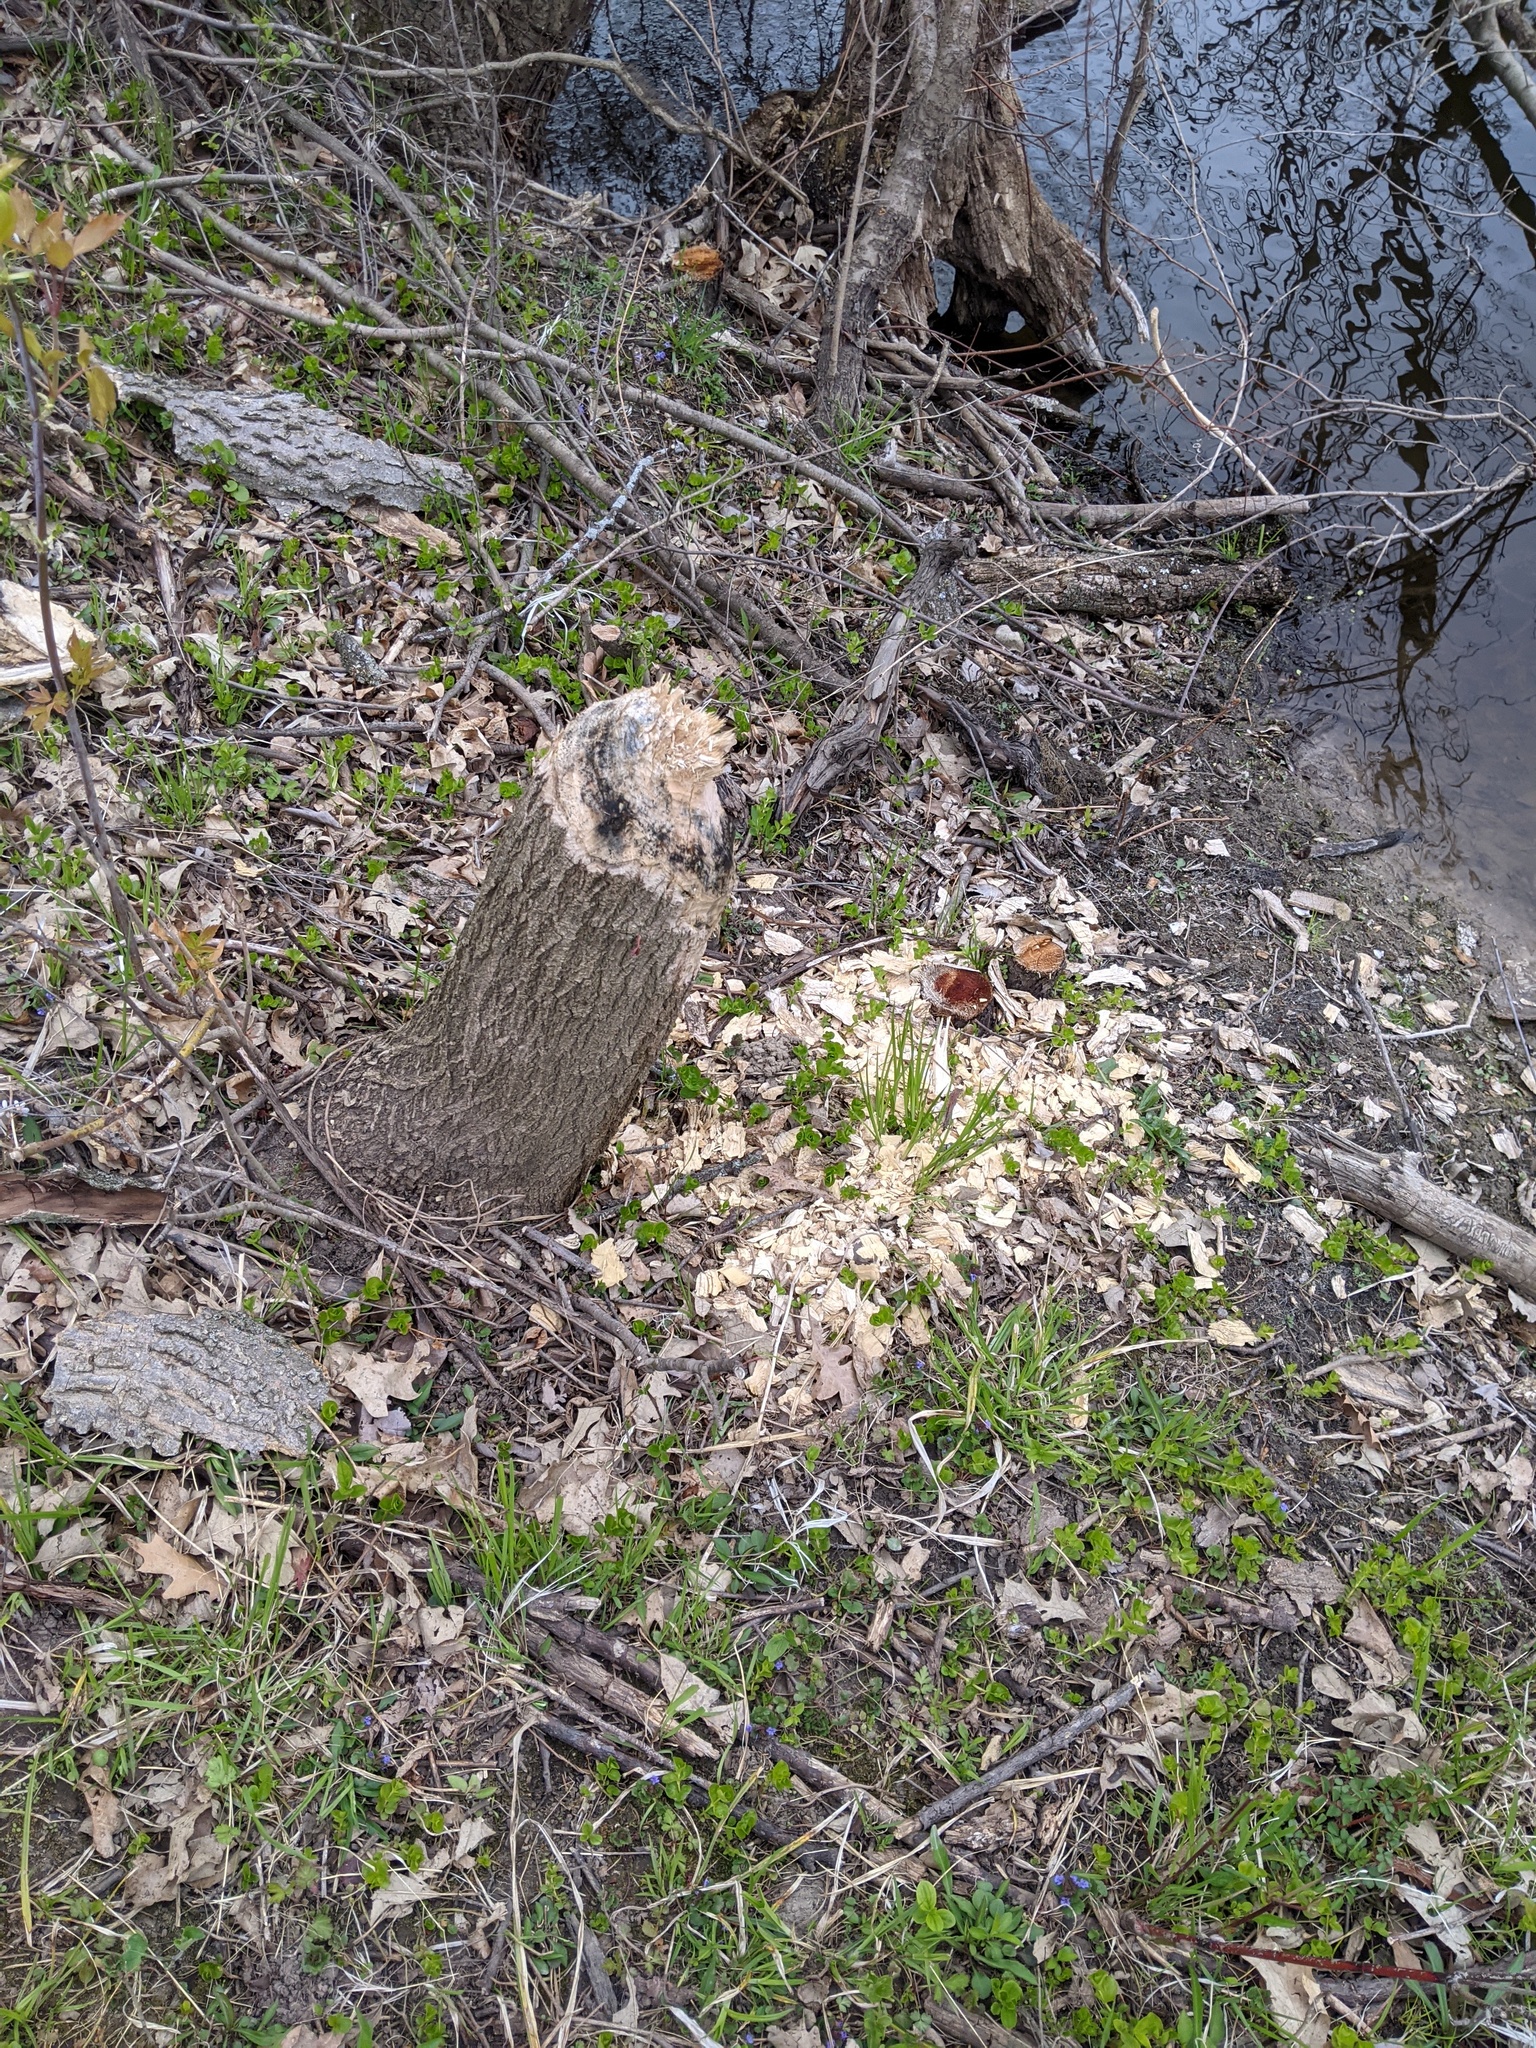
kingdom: Animalia
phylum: Chordata
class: Mammalia
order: Rodentia
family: Castoridae
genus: Castor
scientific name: Castor canadensis
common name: American beaver
